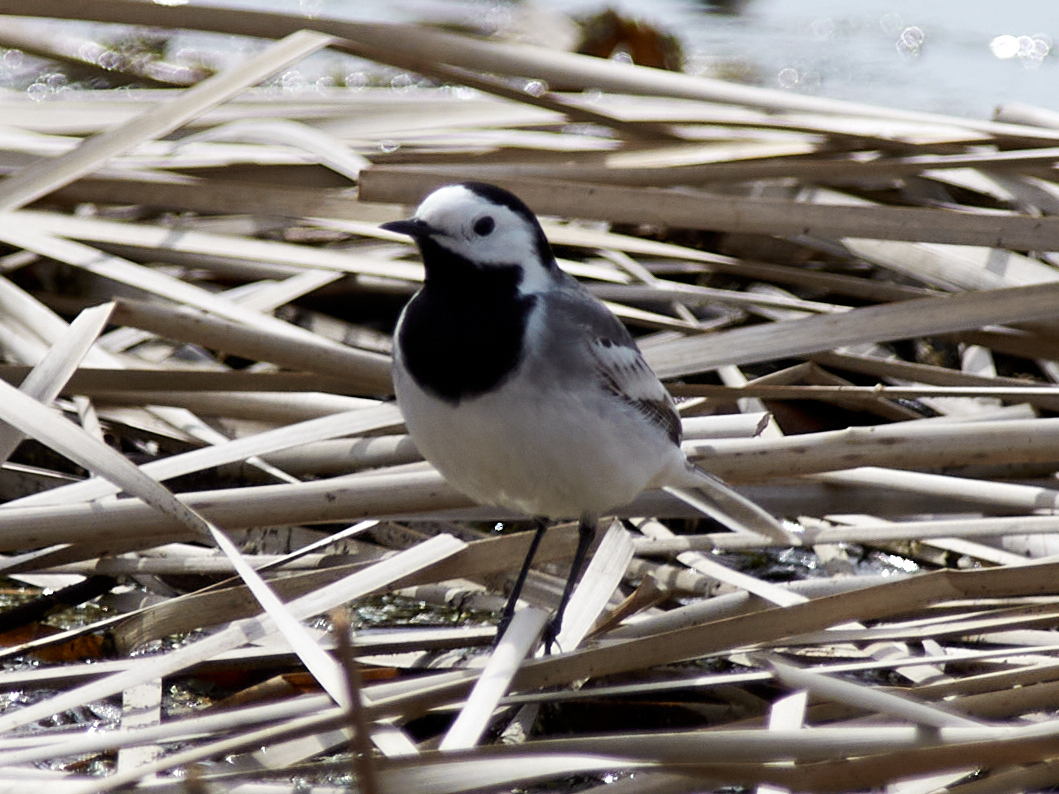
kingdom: Animalia
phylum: Chordata
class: Aves
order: Passeriformes
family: Motacillidae
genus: Motacilla
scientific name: Motacilla alba
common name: White wagtail
